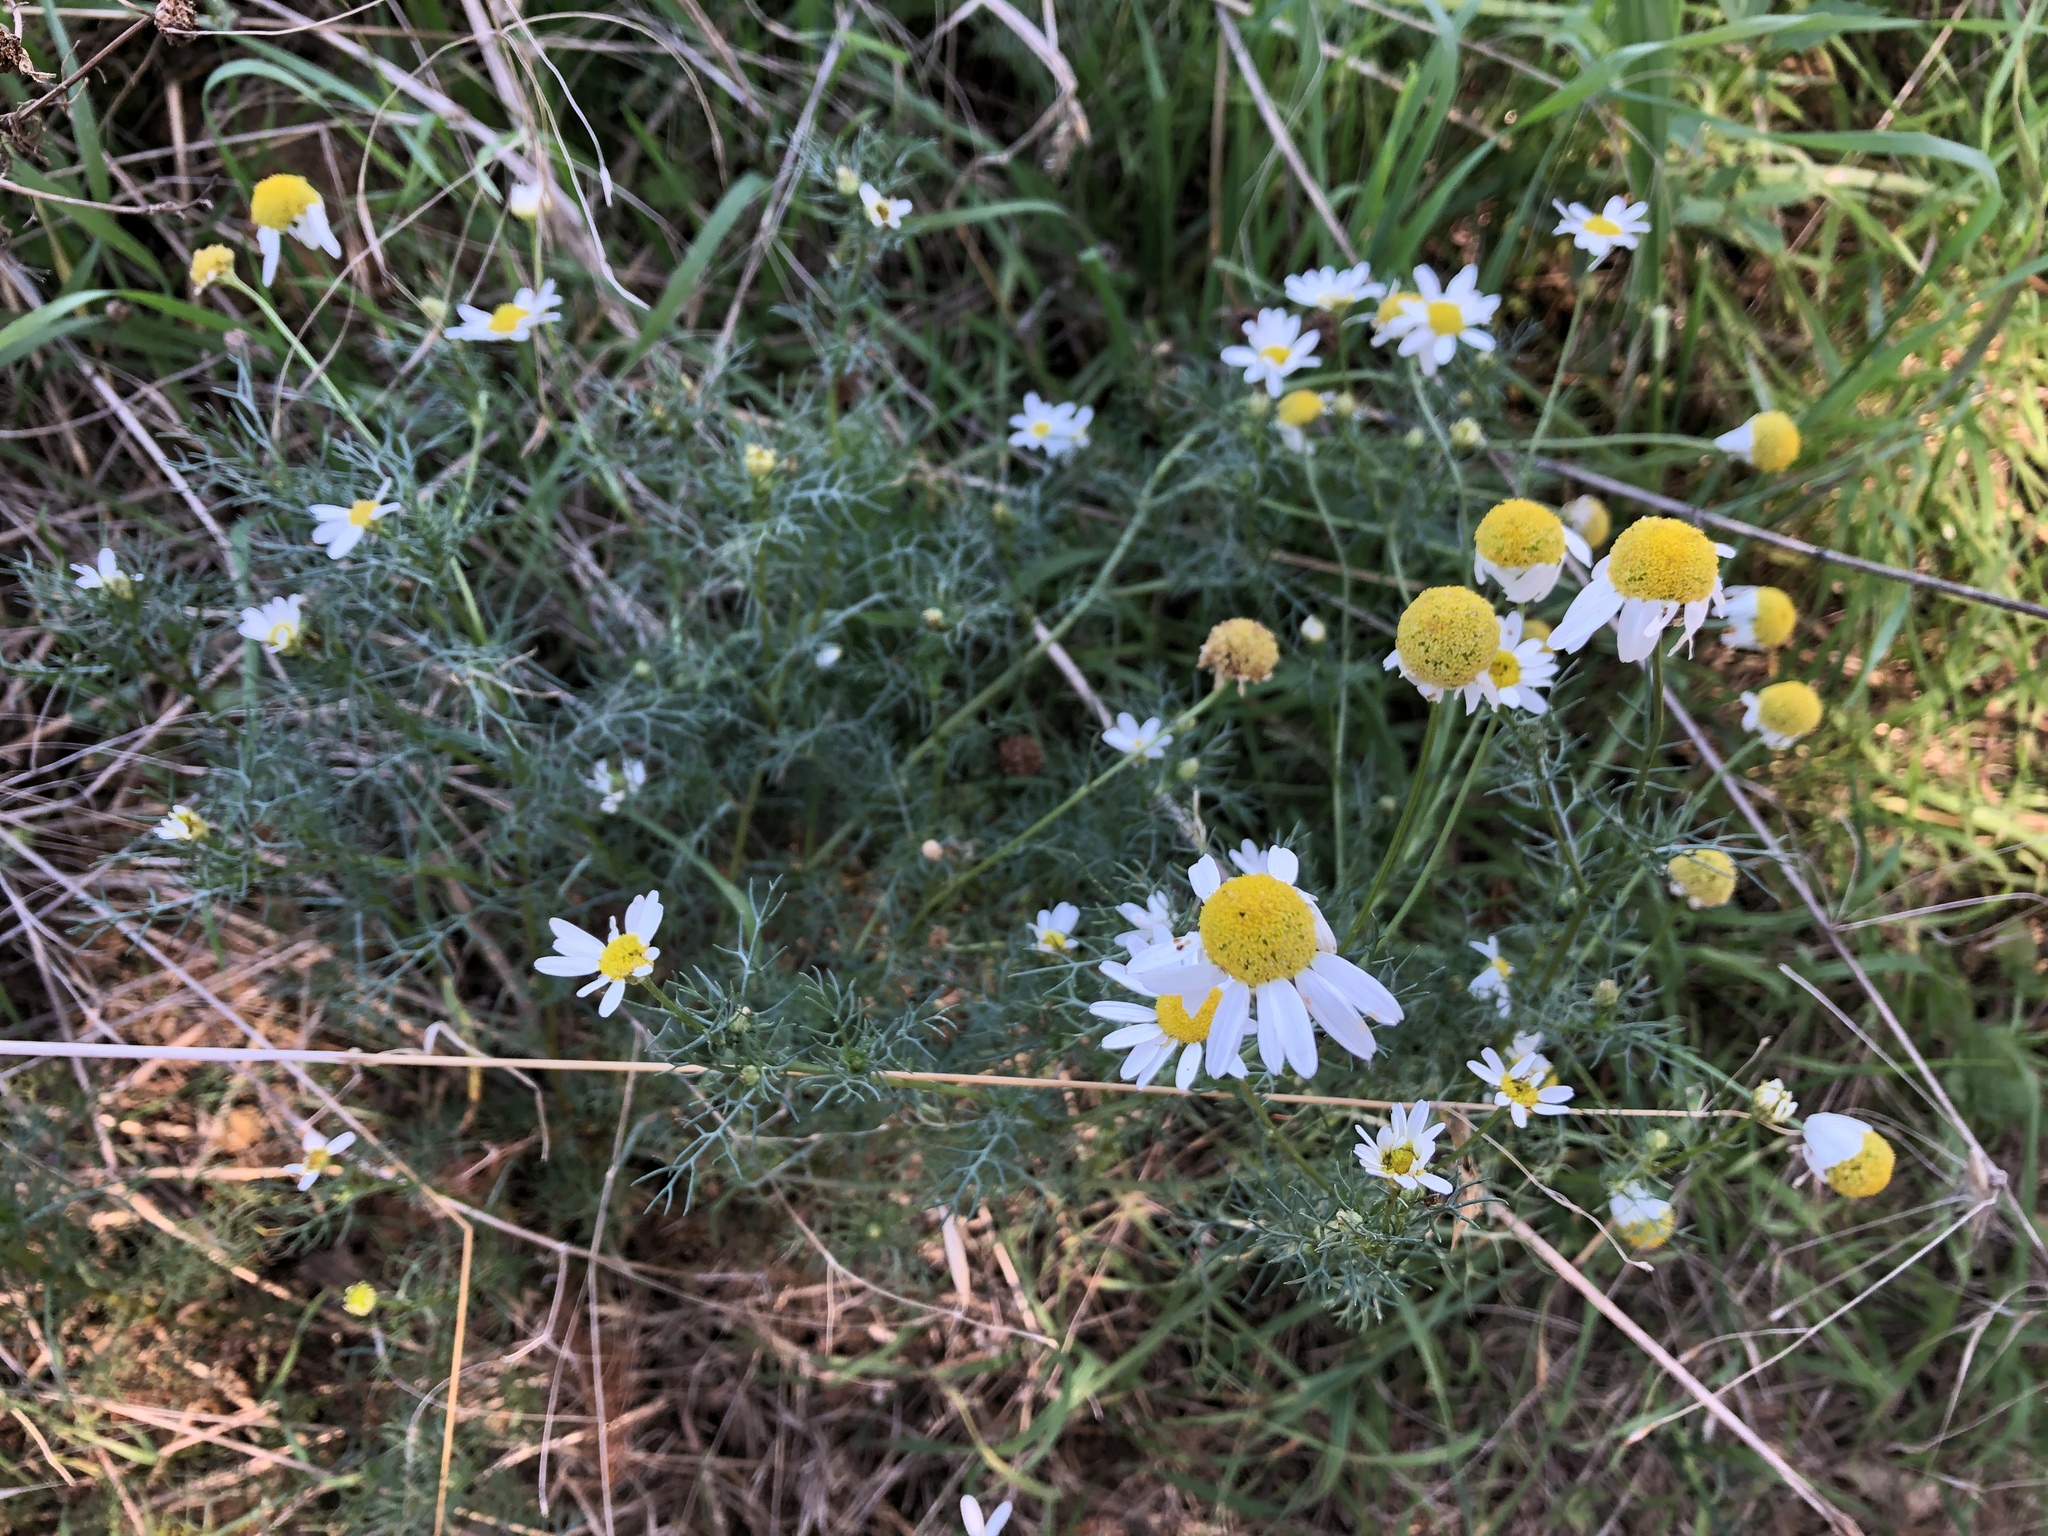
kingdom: Plantae
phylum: Tracheophyta
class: Magnoliopsida
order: Asterales
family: Asteraceae
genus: Tripleurospermum
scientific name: Tripleurospermum inodorum
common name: Scentless mayweed
